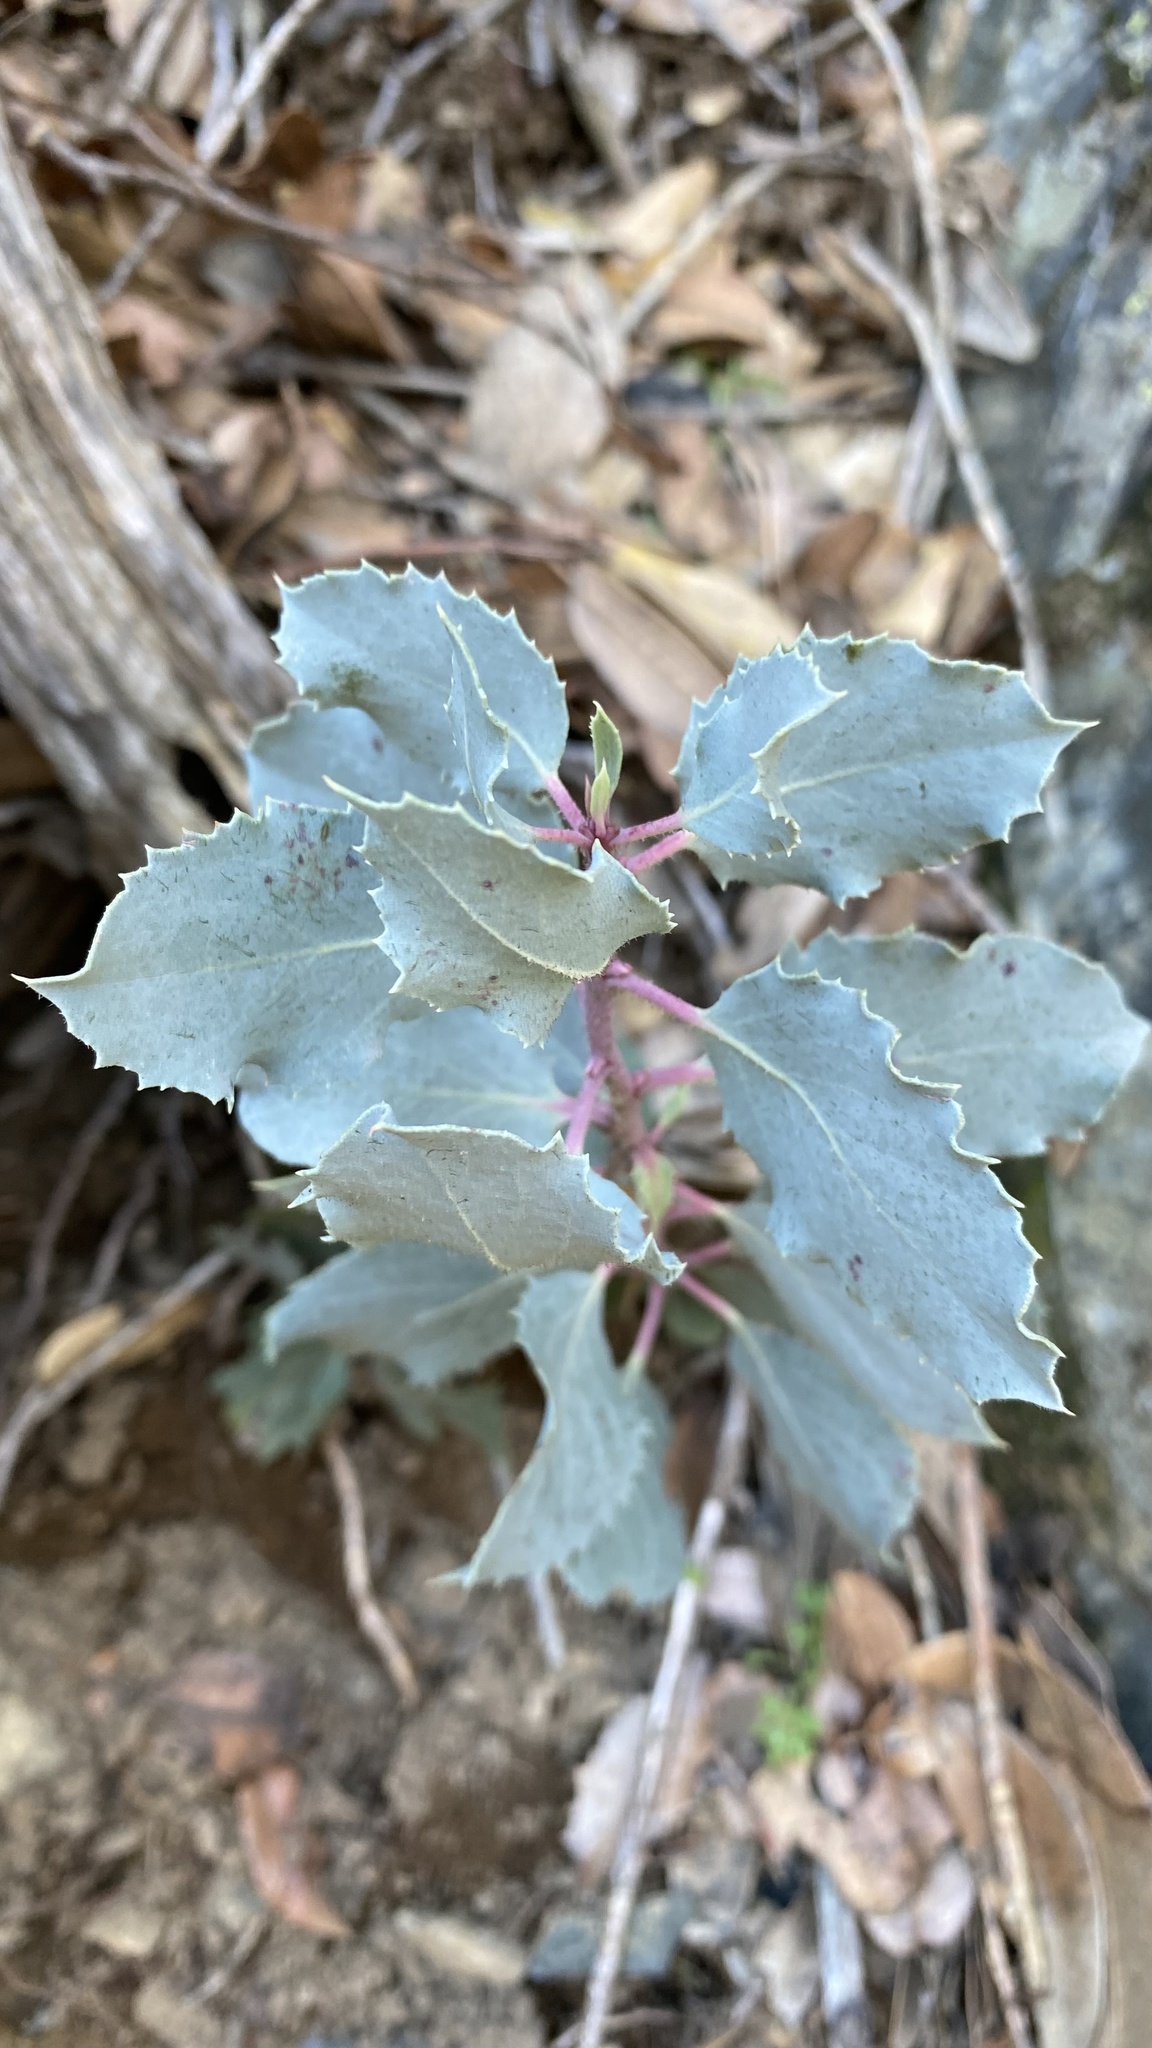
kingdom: Plantae
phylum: Tracheophyta
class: Magnoliopsida
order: Ericales
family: Ericaceae
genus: Arctostaphylos
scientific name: Arctostaphylos viscida
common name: White-leaf manzanita
